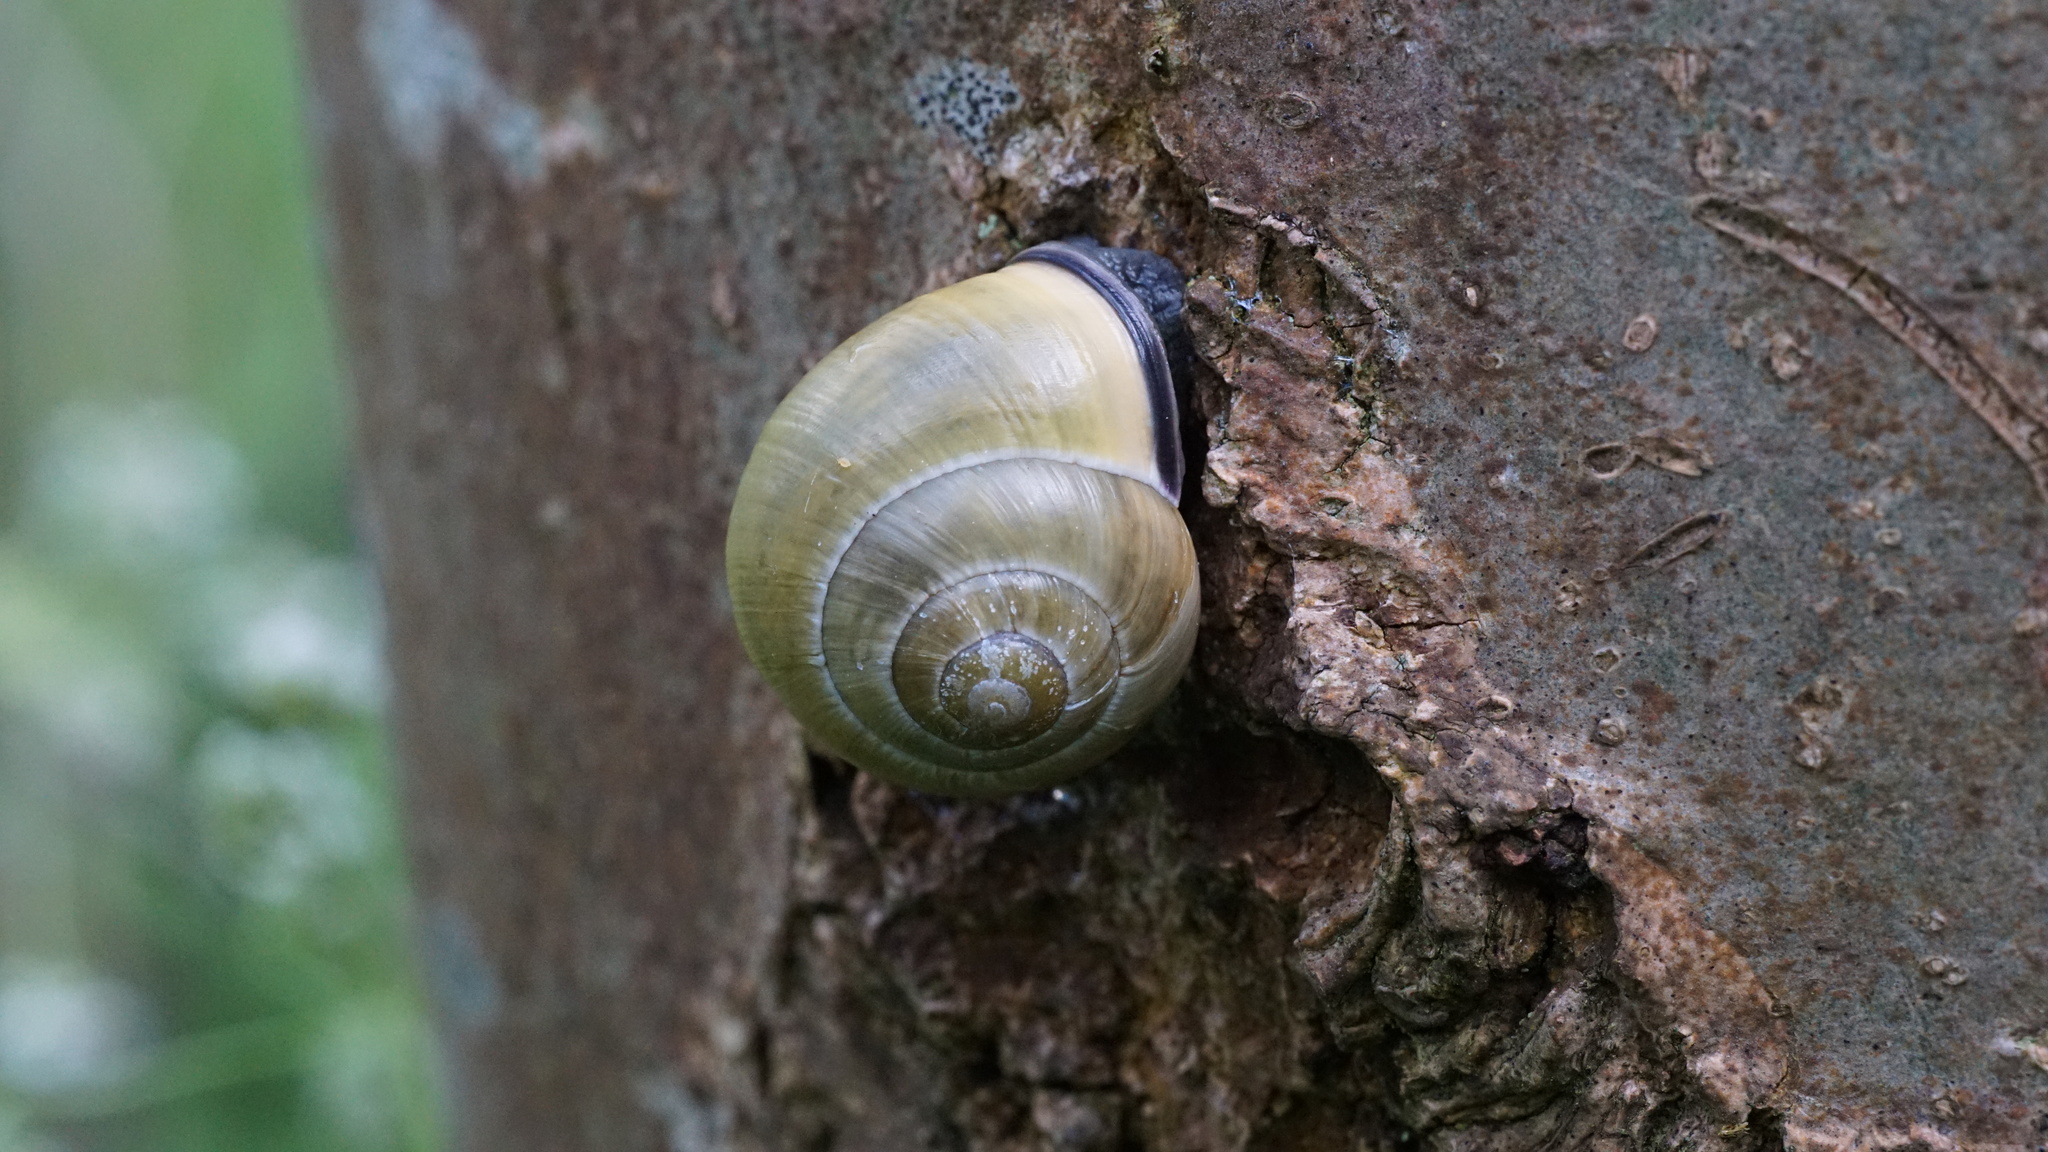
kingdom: Animalia
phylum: Mollusca
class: Gastropoda
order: Stylommatophora
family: Helicidae
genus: Cepaea
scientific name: Cepaea nemoralis
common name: Grovesnail
